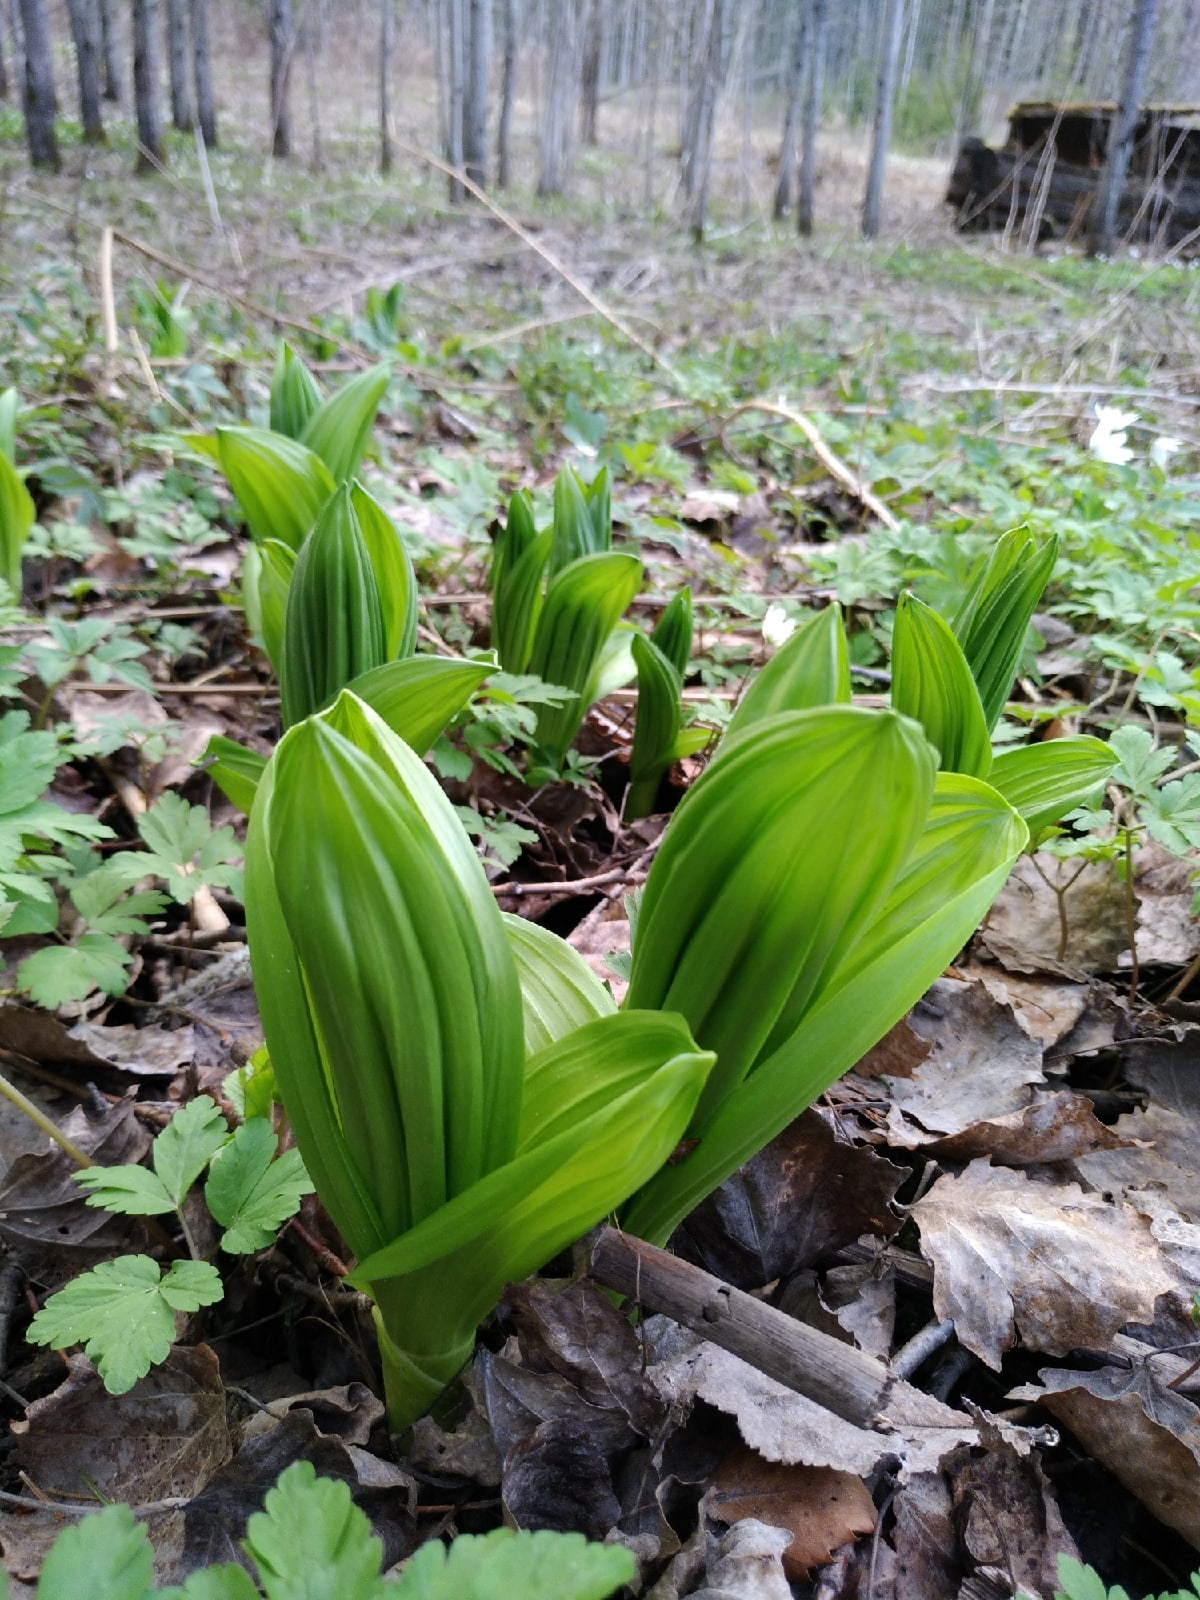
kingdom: Plantae
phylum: Tracheophyta
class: Liliopsida
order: Liliales
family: Melanthiaceae
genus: Veratrum
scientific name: Veratrum lobelianum
